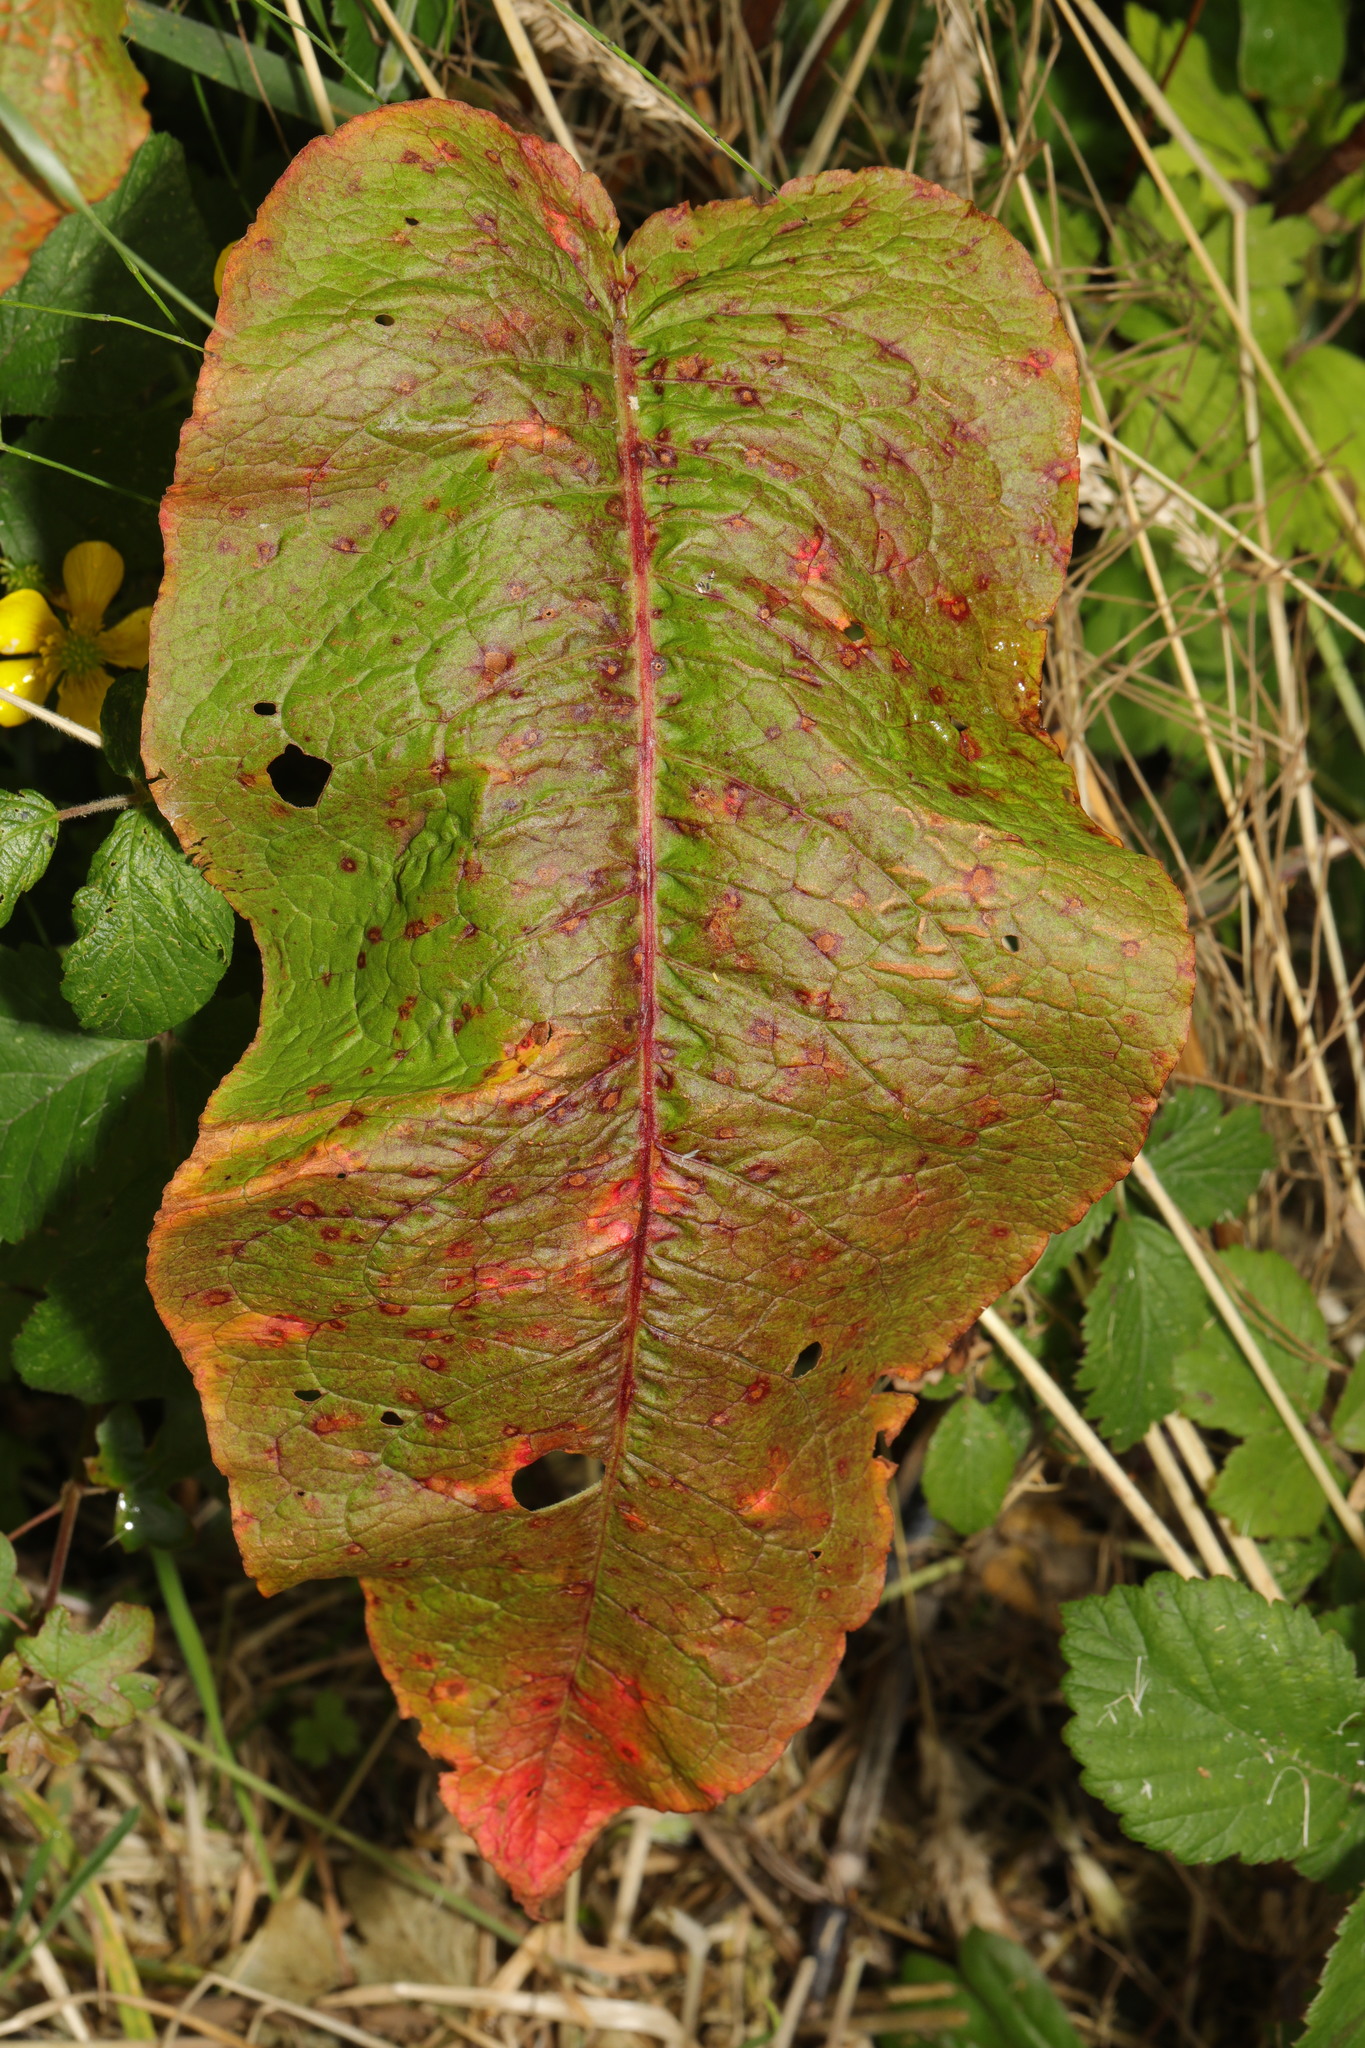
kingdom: Plantae
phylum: Tracheophyta
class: Magnoliopsida
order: Caryophyllales
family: Polygonaceae
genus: Rumex
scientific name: Rumex obtusifolius
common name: Bitter dock
